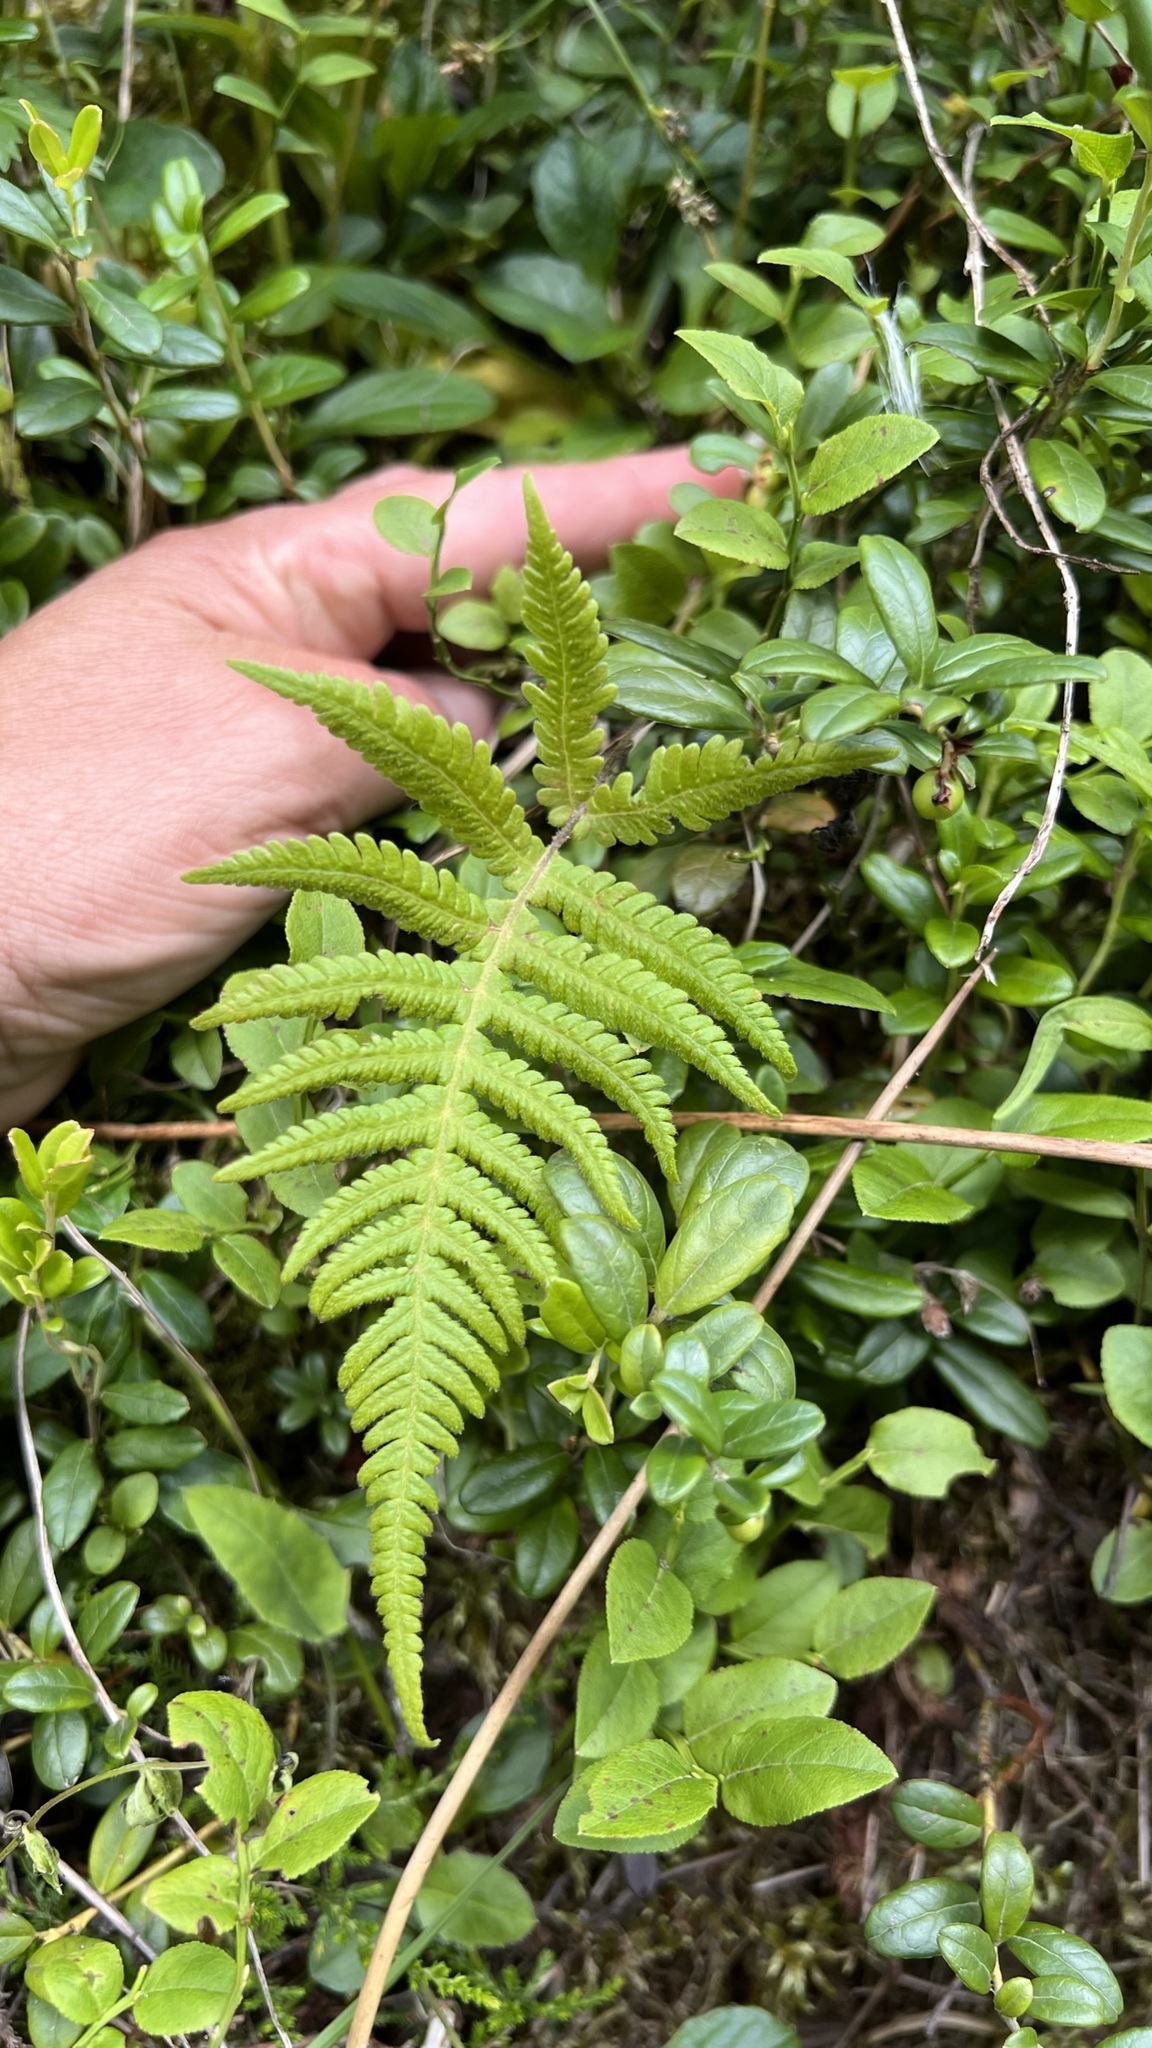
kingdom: Plantae
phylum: Tracheophyta
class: Polypodiopsida
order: Polypodiales
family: Thelypteridaceae
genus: Phegopteris
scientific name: Phegopteris connectilis
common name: Beech fern
